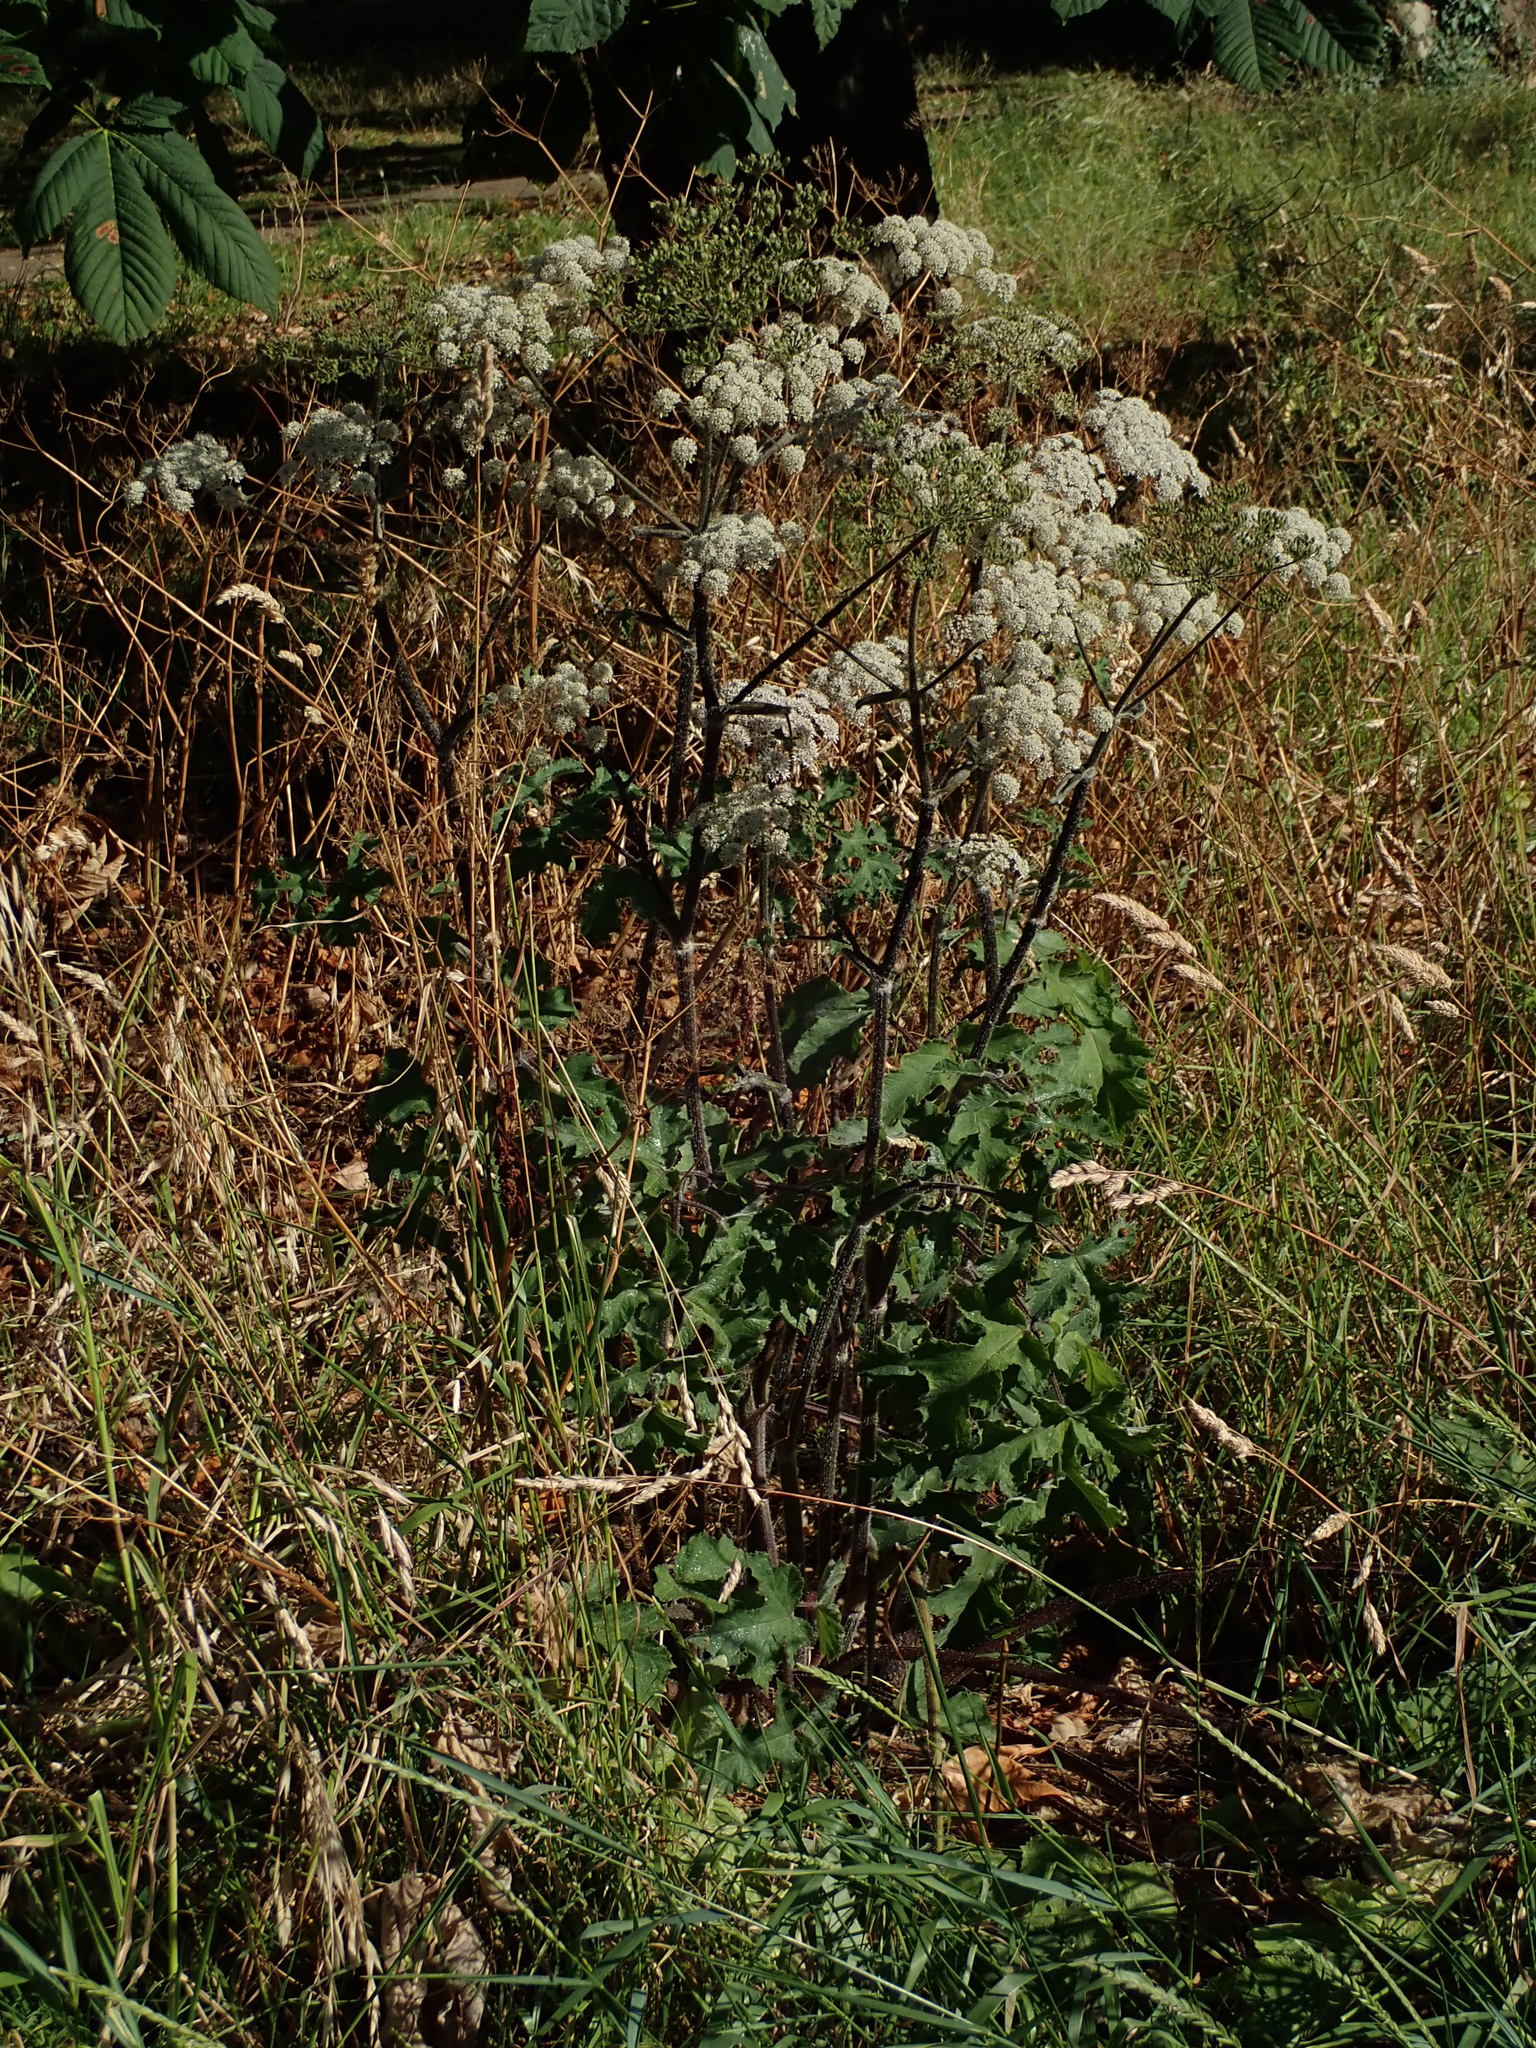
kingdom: Plantae
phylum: Tracheophyta
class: Magnoliopsida
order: Apiales
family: Apiaceae
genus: Heracleum
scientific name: Heracleum sphondylium
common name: Hogweed
